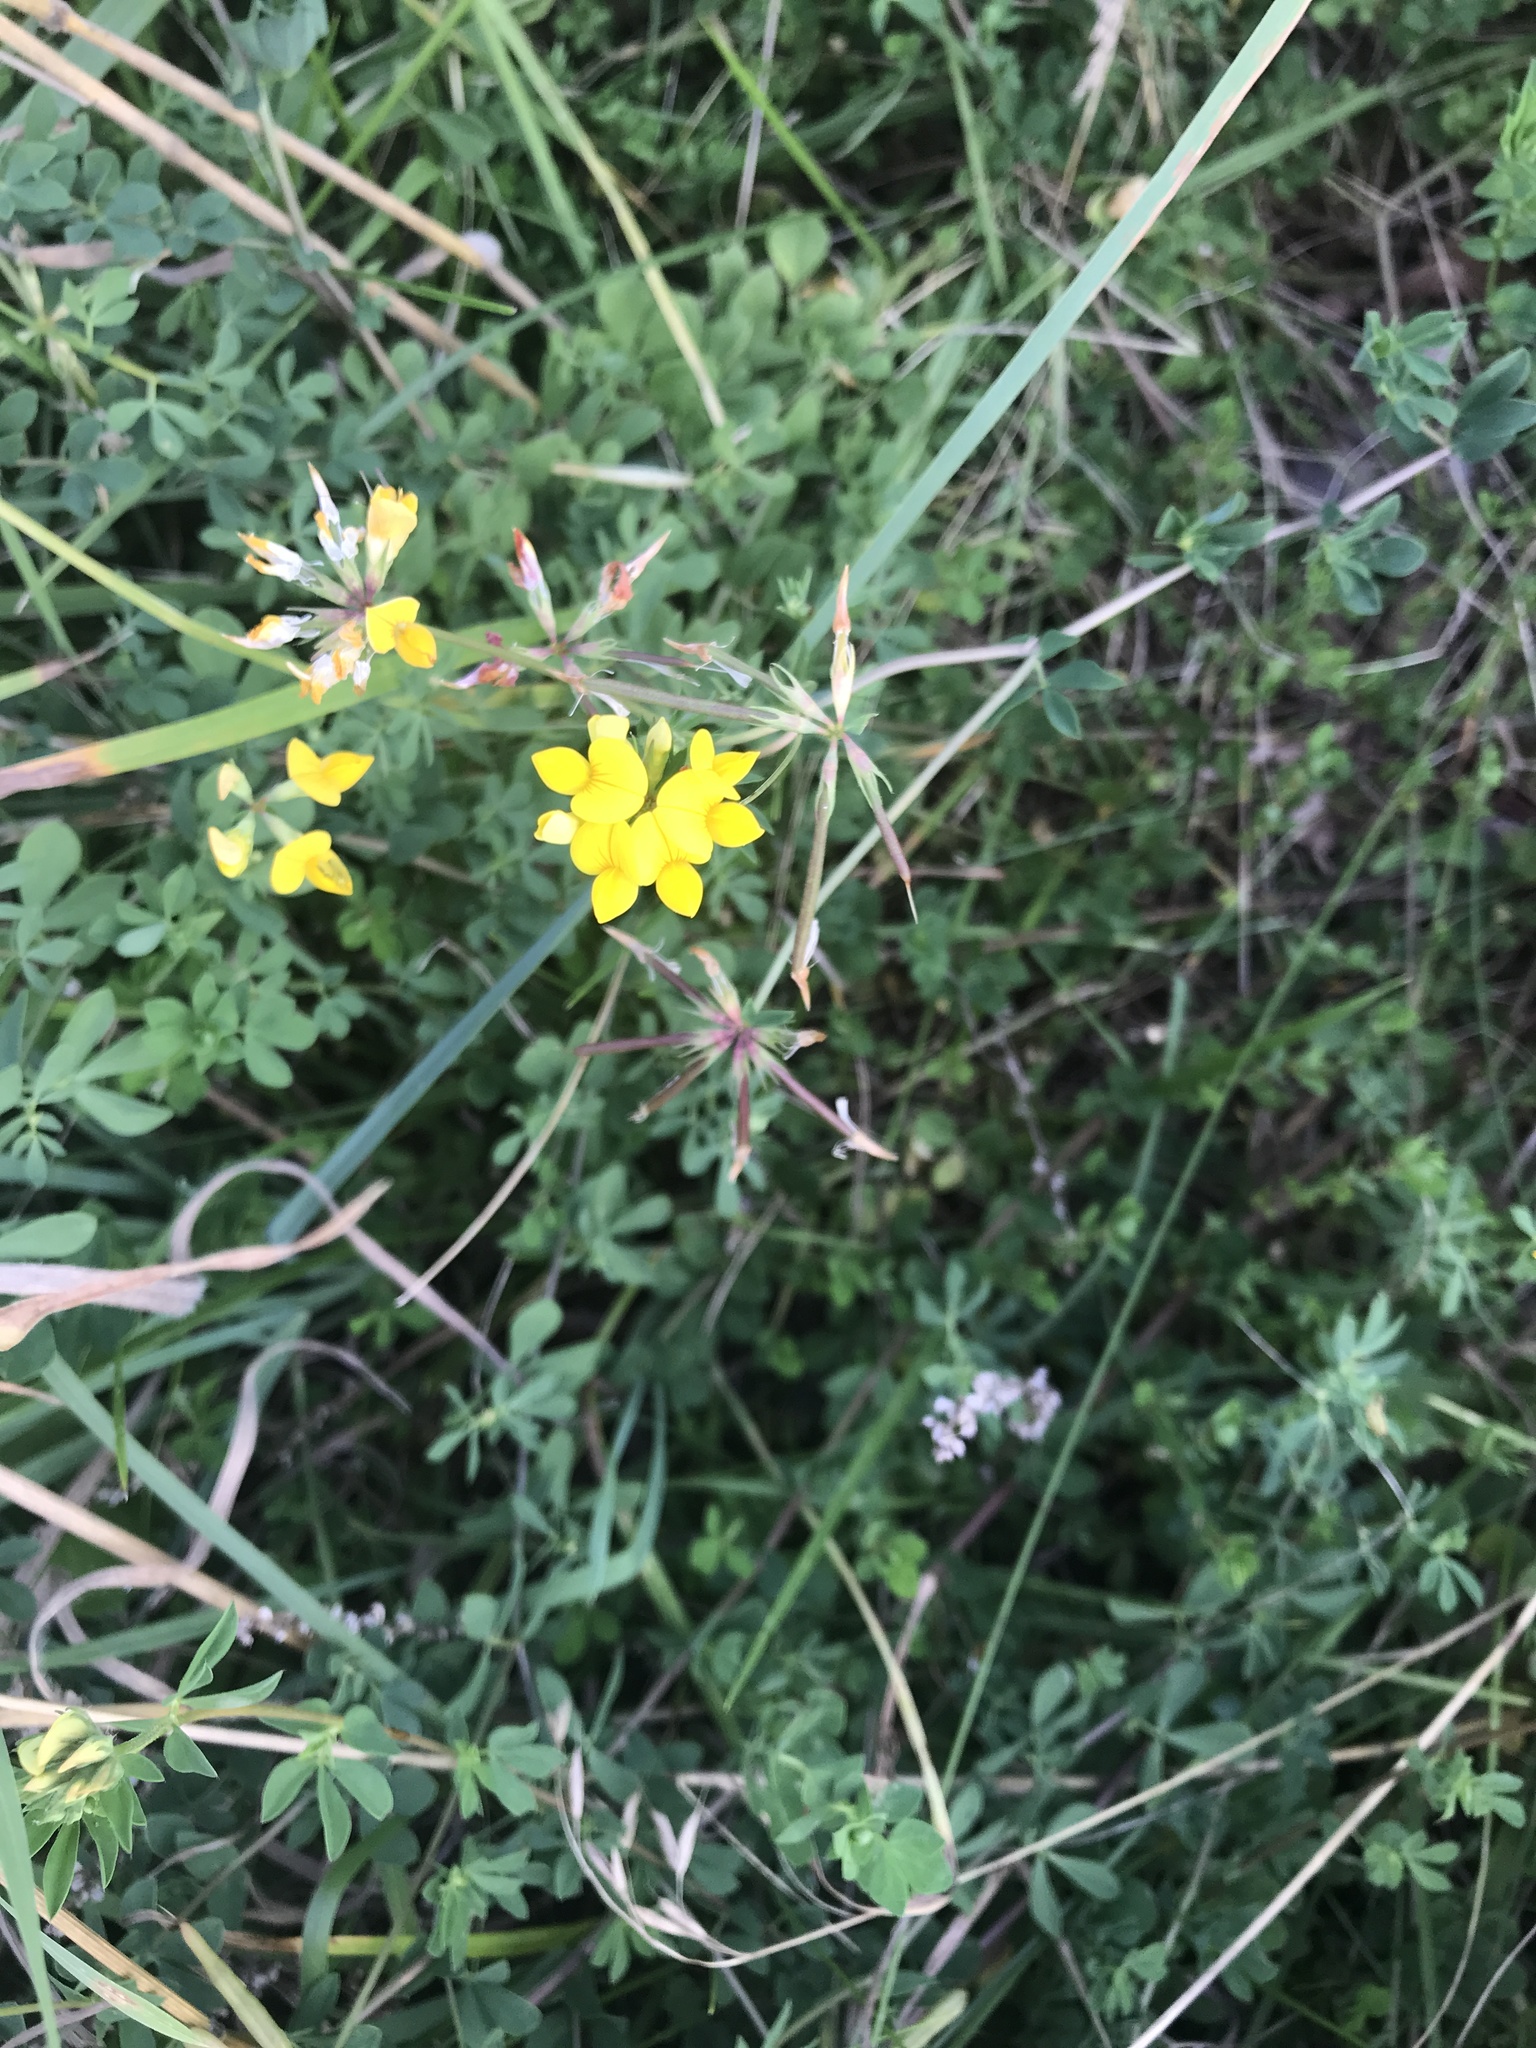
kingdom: Plantae
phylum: Tracheophyta
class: Magnoliopsida
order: Fabales
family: Fabaceae
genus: Lotus
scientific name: Lotus corniculatus
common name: Common bird's-foot-trefoil
